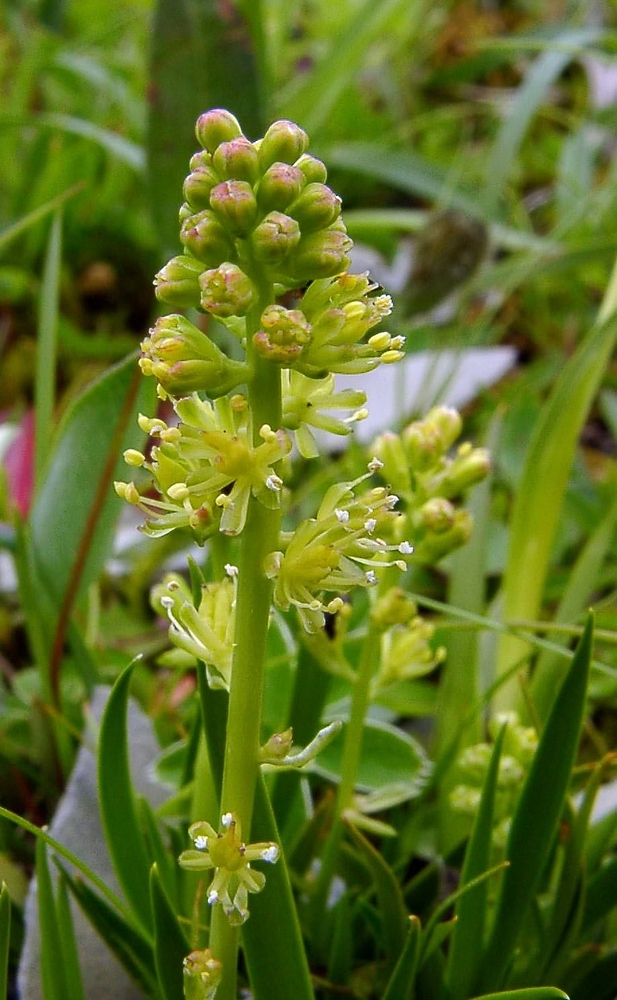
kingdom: Plantae
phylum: Tracheophyta
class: Liliopsida
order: Alismatales
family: Tofieldiaceae
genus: Tofieldia
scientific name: Tofieldia calyculata
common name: German-asphodel
